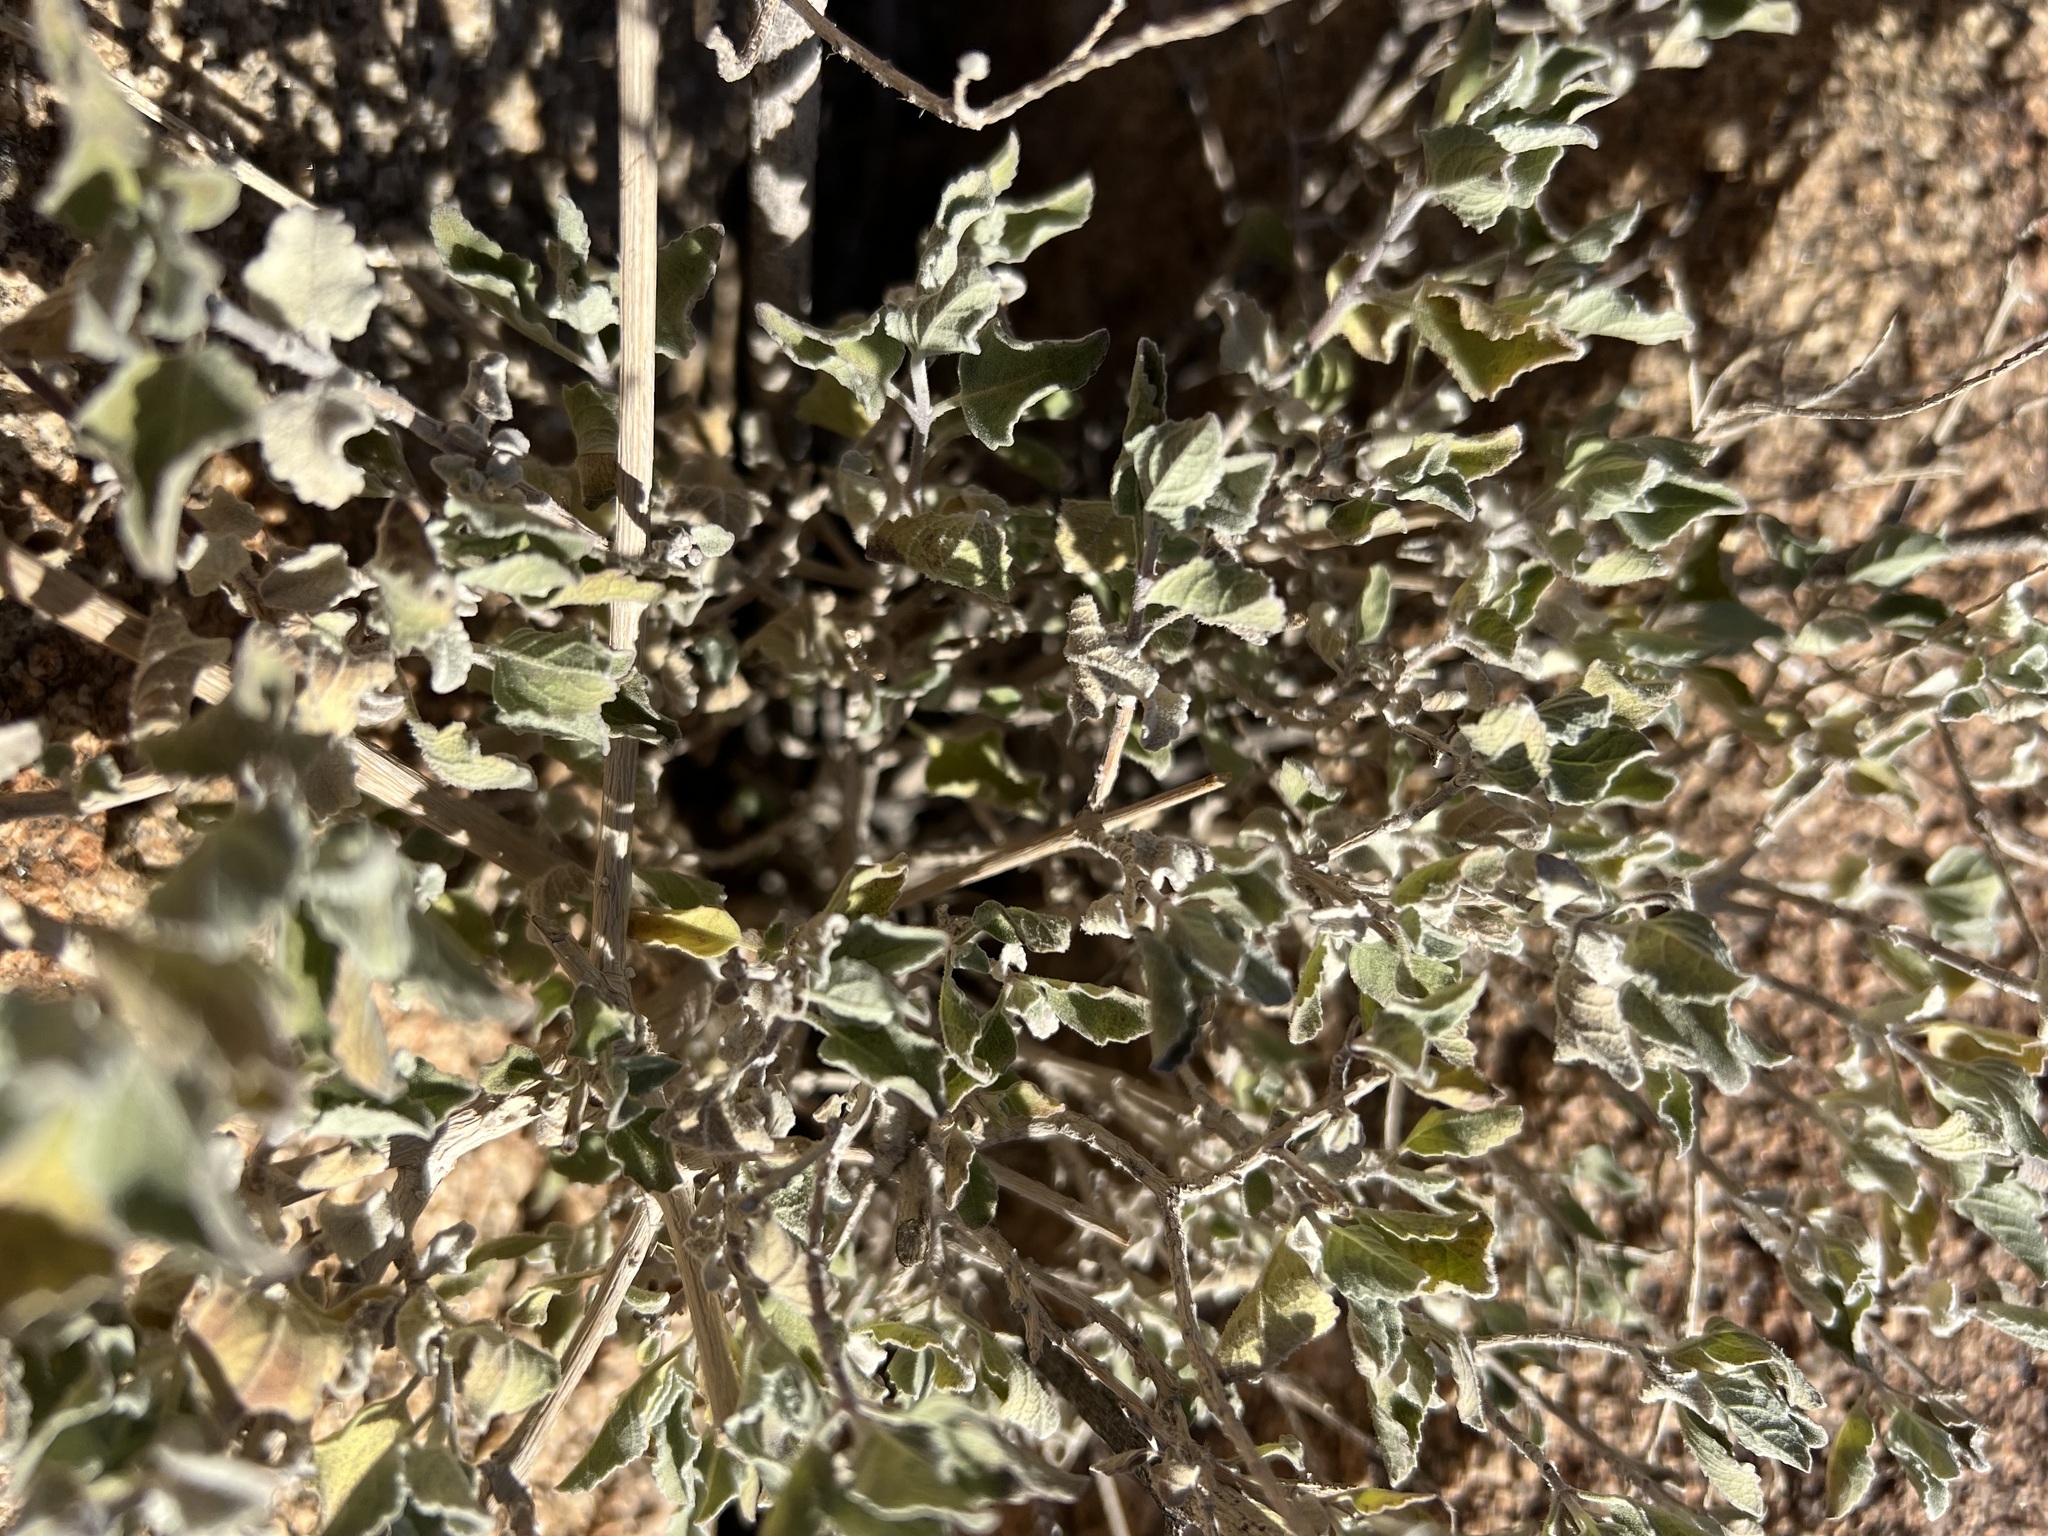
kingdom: Plantae
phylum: Tracheophyta
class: Magnoliopsida
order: Lamiales
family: Lamiaceae
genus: Condea
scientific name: Condea emoryi
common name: Chia
